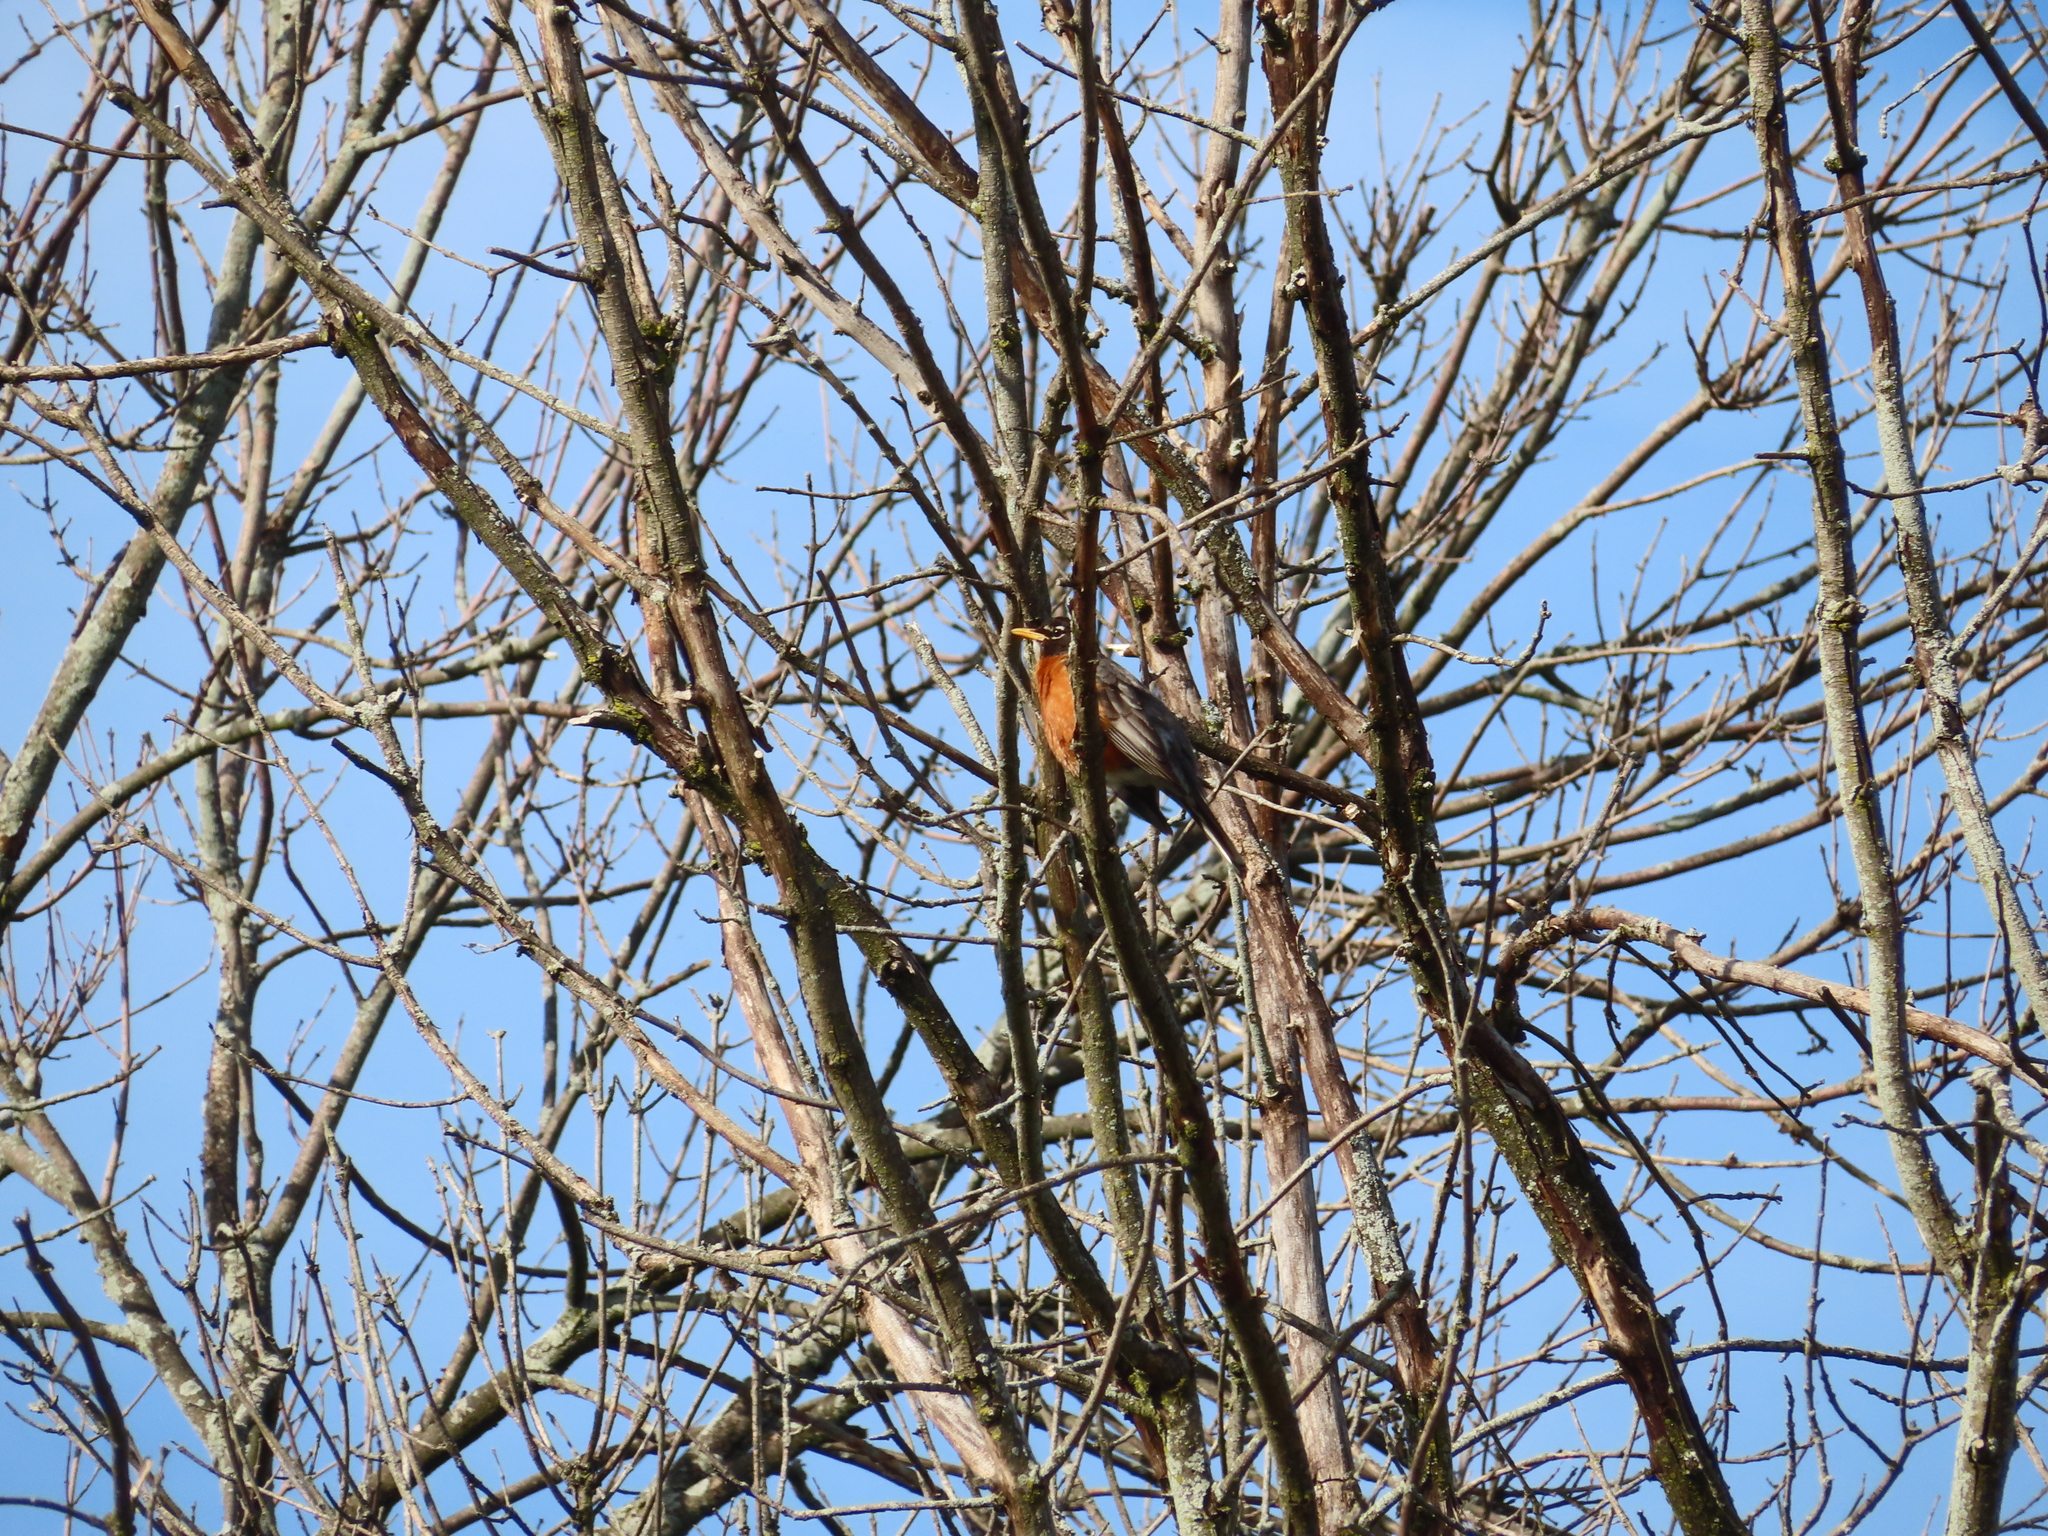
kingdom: Animalia
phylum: Chordata
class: Aves
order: Passeriformes
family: Turdidae
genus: Turdus
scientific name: Turdus migratorius
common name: American robin
